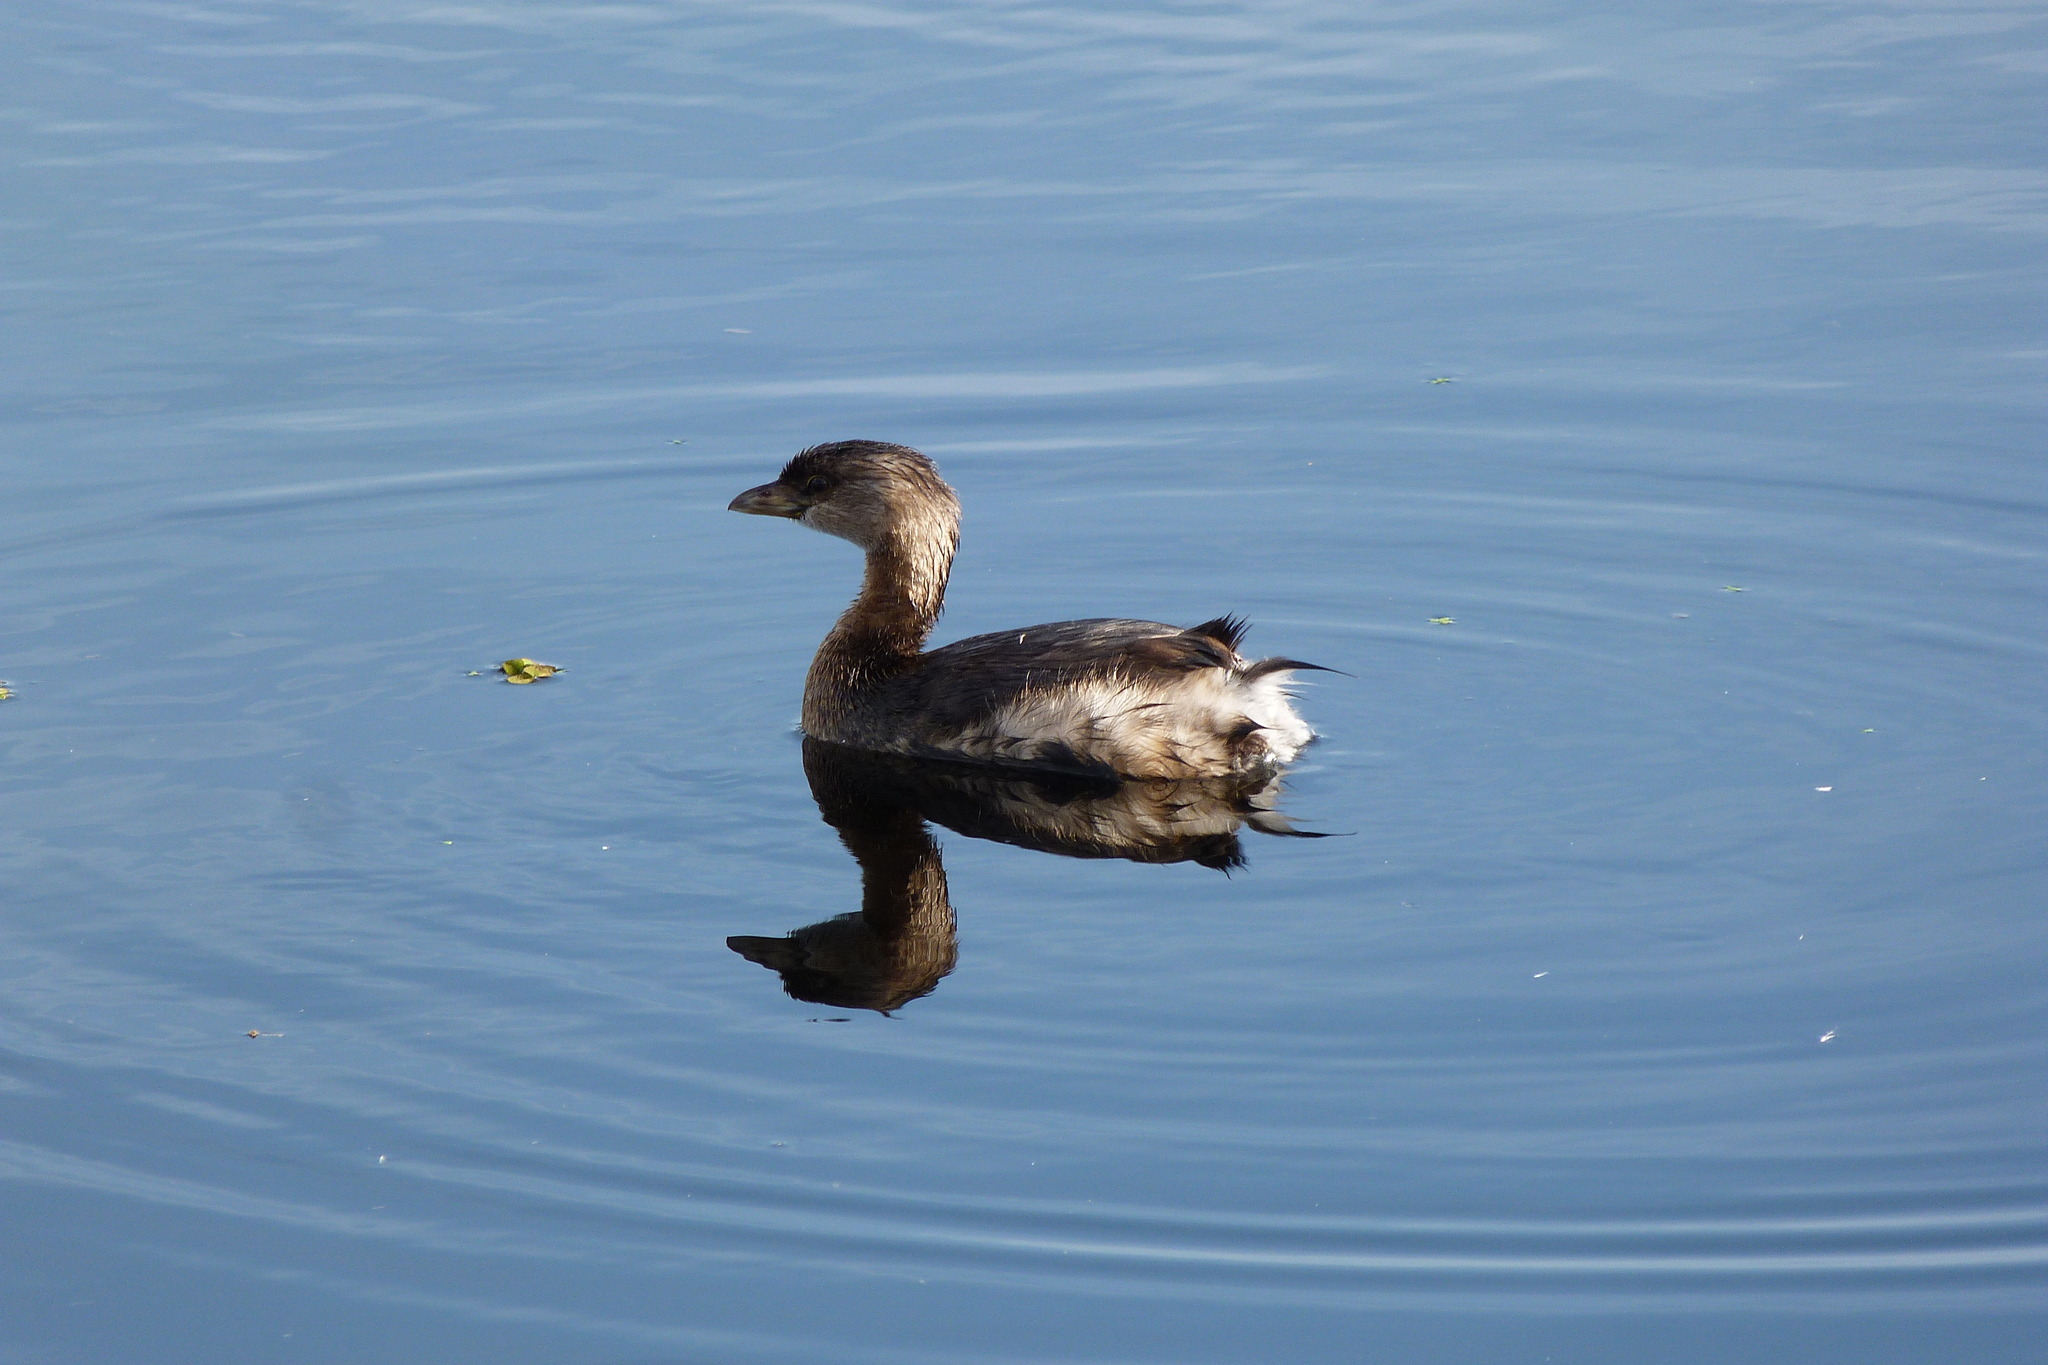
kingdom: Animalia
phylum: Chordata
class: Aves
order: Podicipediformes
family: Podicipedidae
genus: Podilymbus
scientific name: Podilymbus podiceps
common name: Pied-billed grebe
